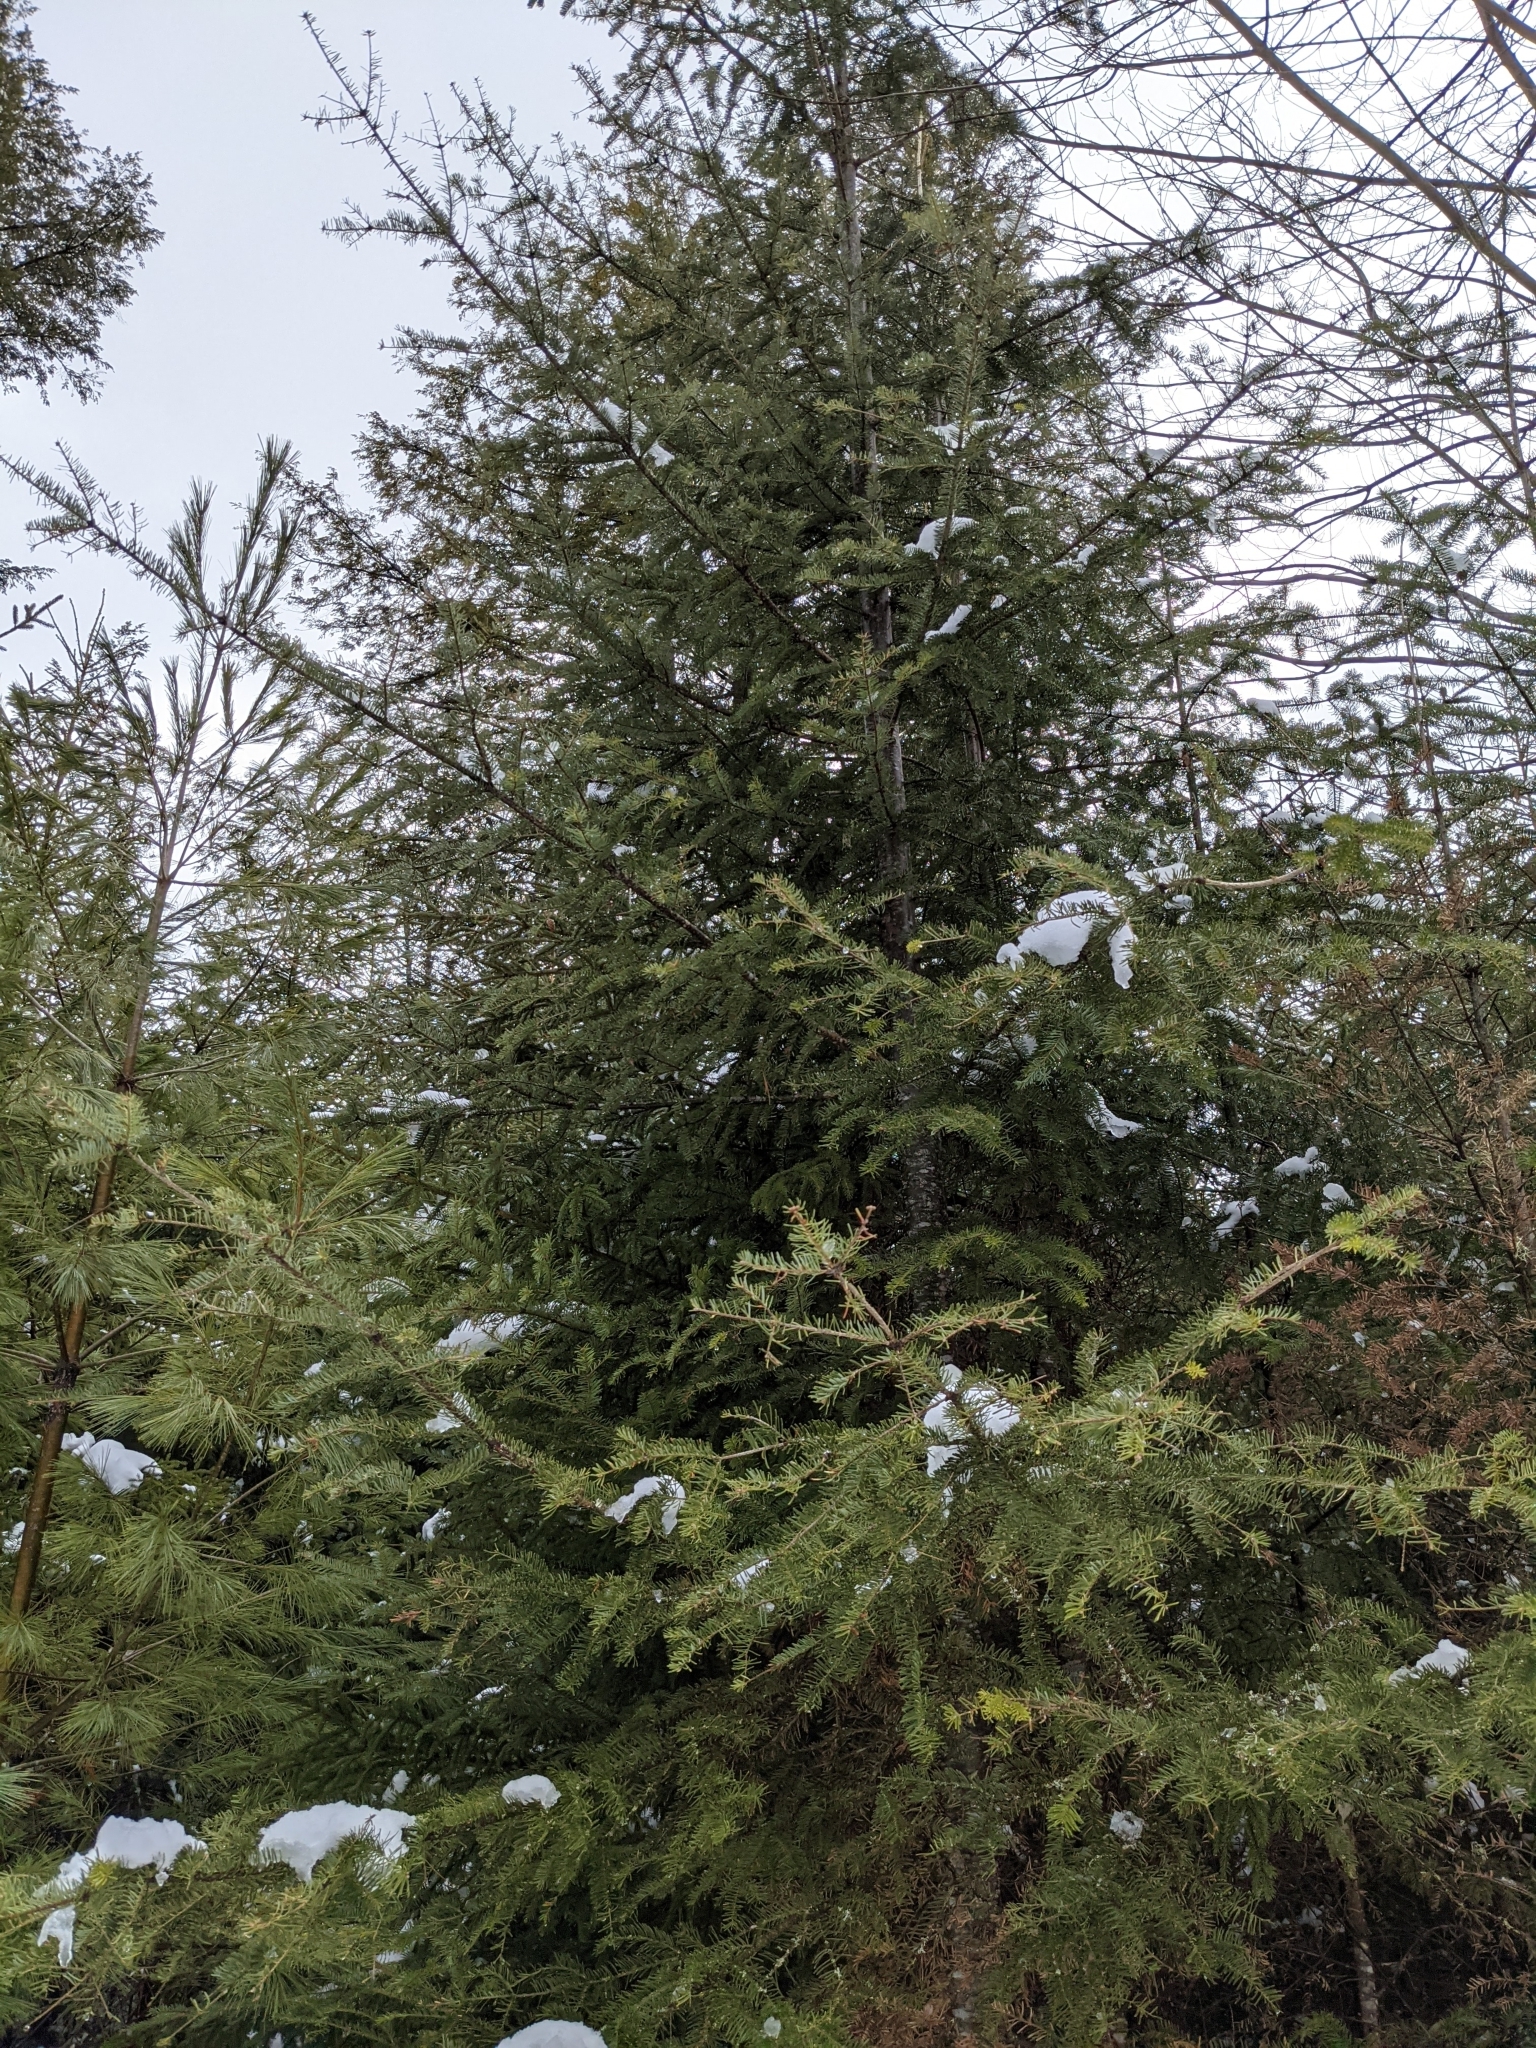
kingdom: Plantae
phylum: Tracheophyta
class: Pinopsida
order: Pinales
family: Pinaceae
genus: Abies
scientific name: Abies balsamea
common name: Balsam fir
